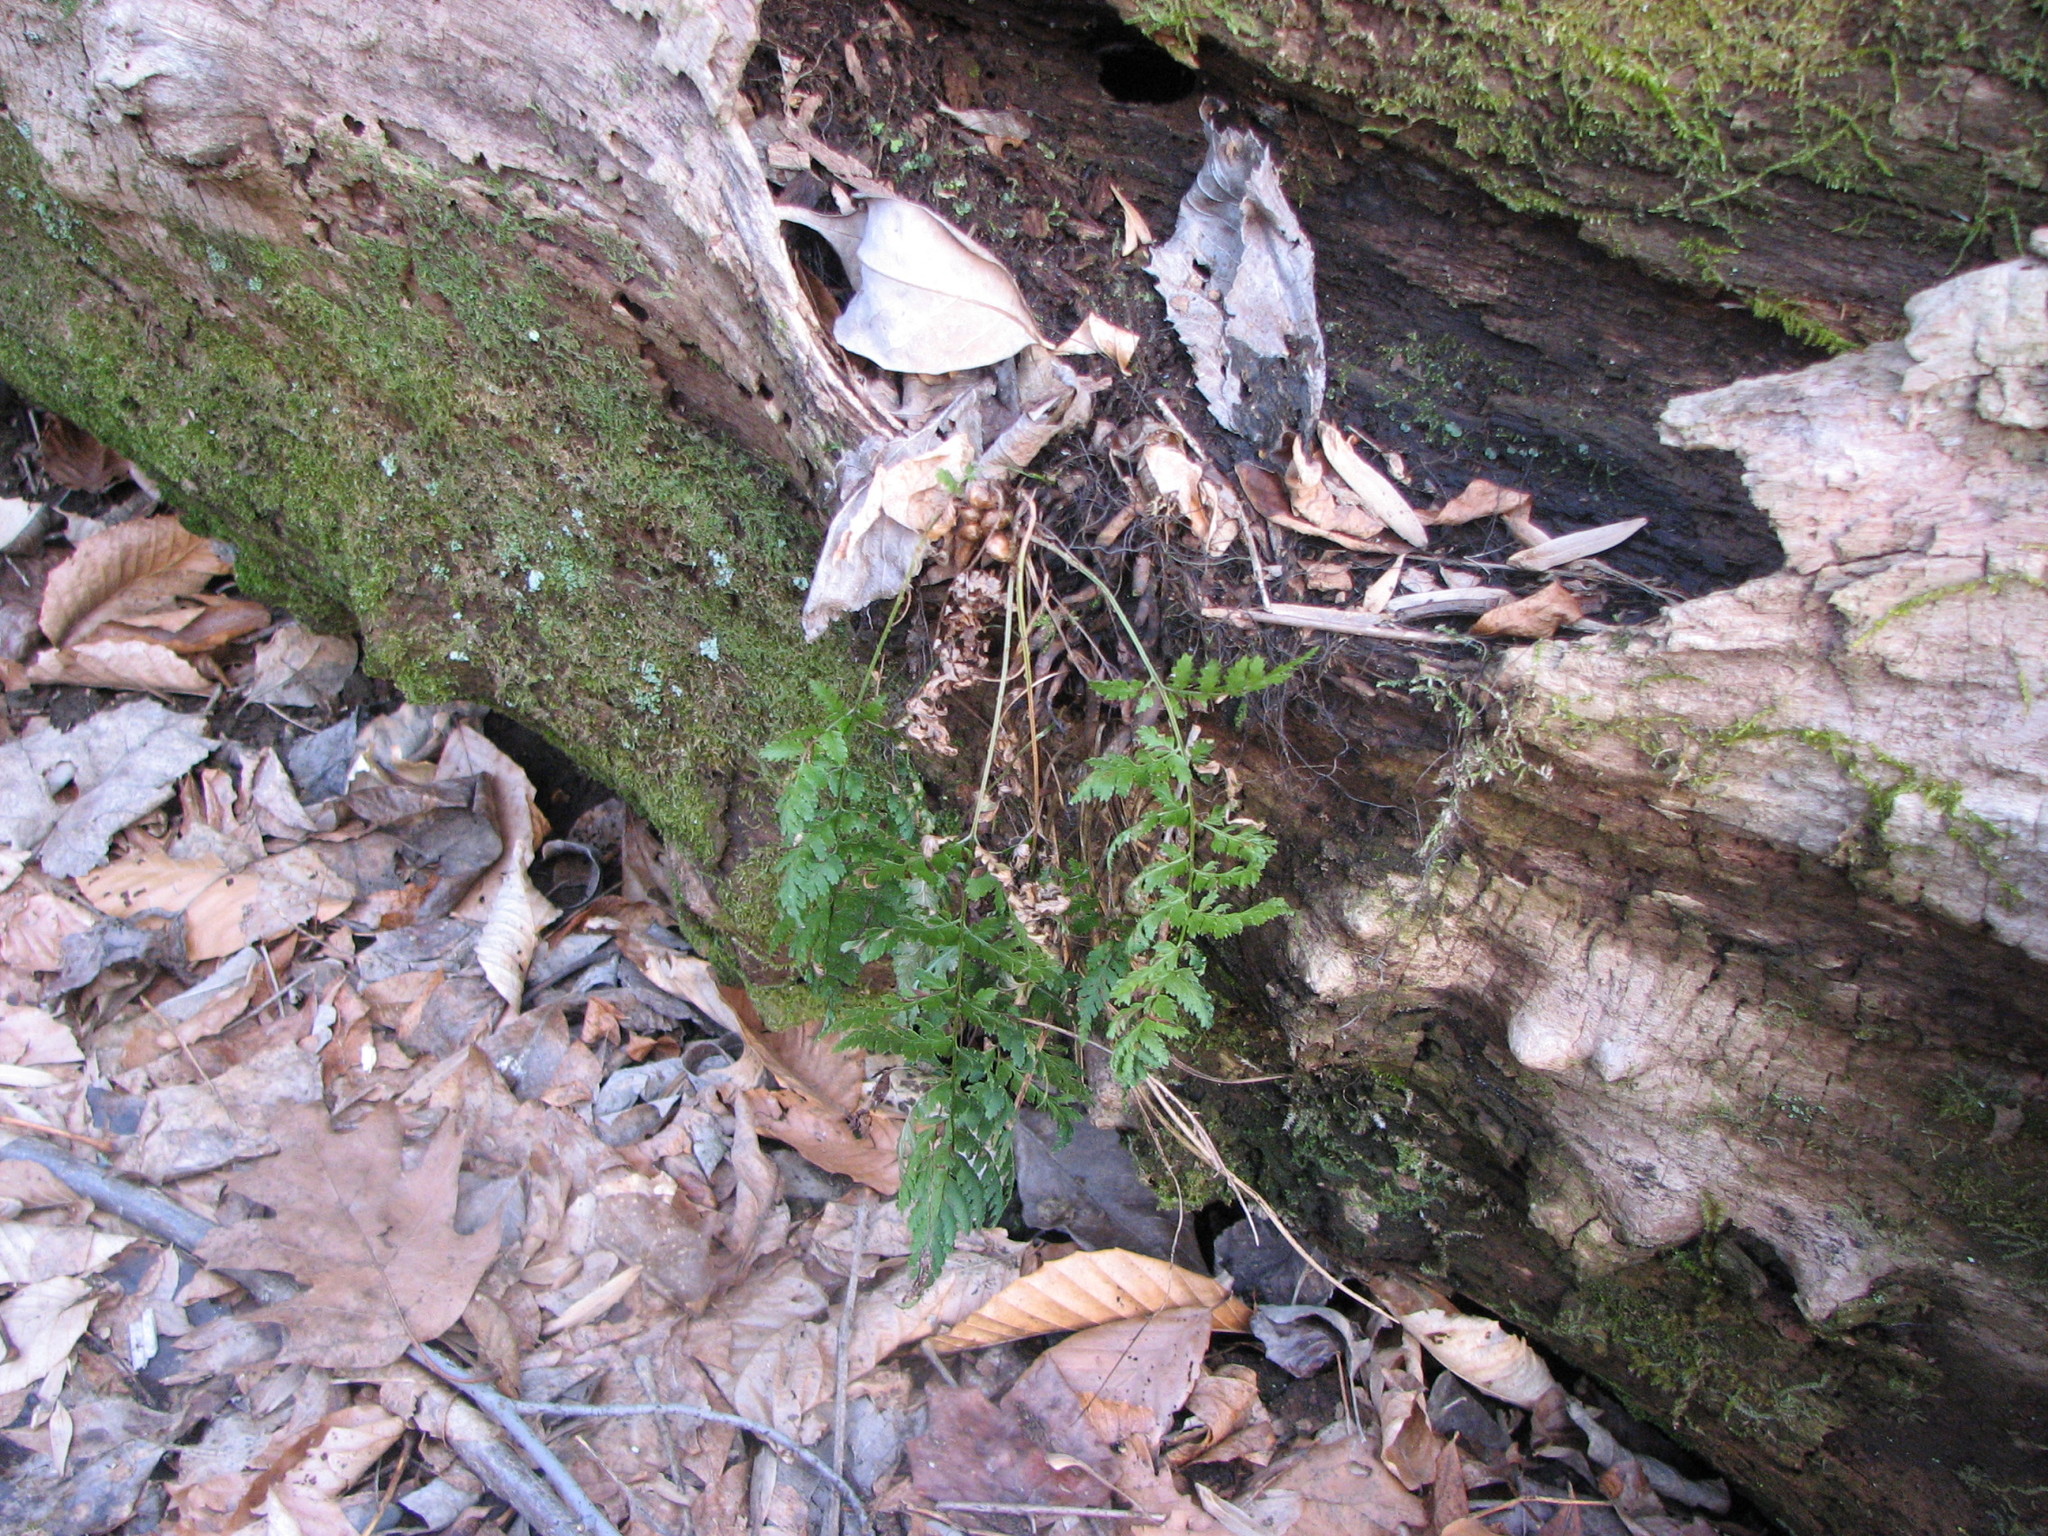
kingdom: Plantae
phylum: Tracheophyta
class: Polypodiopsida
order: Polypodiales
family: Dryopteridaceae
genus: Dryopteris
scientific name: Dryopteris intermedia
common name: Evergreen wood fern
